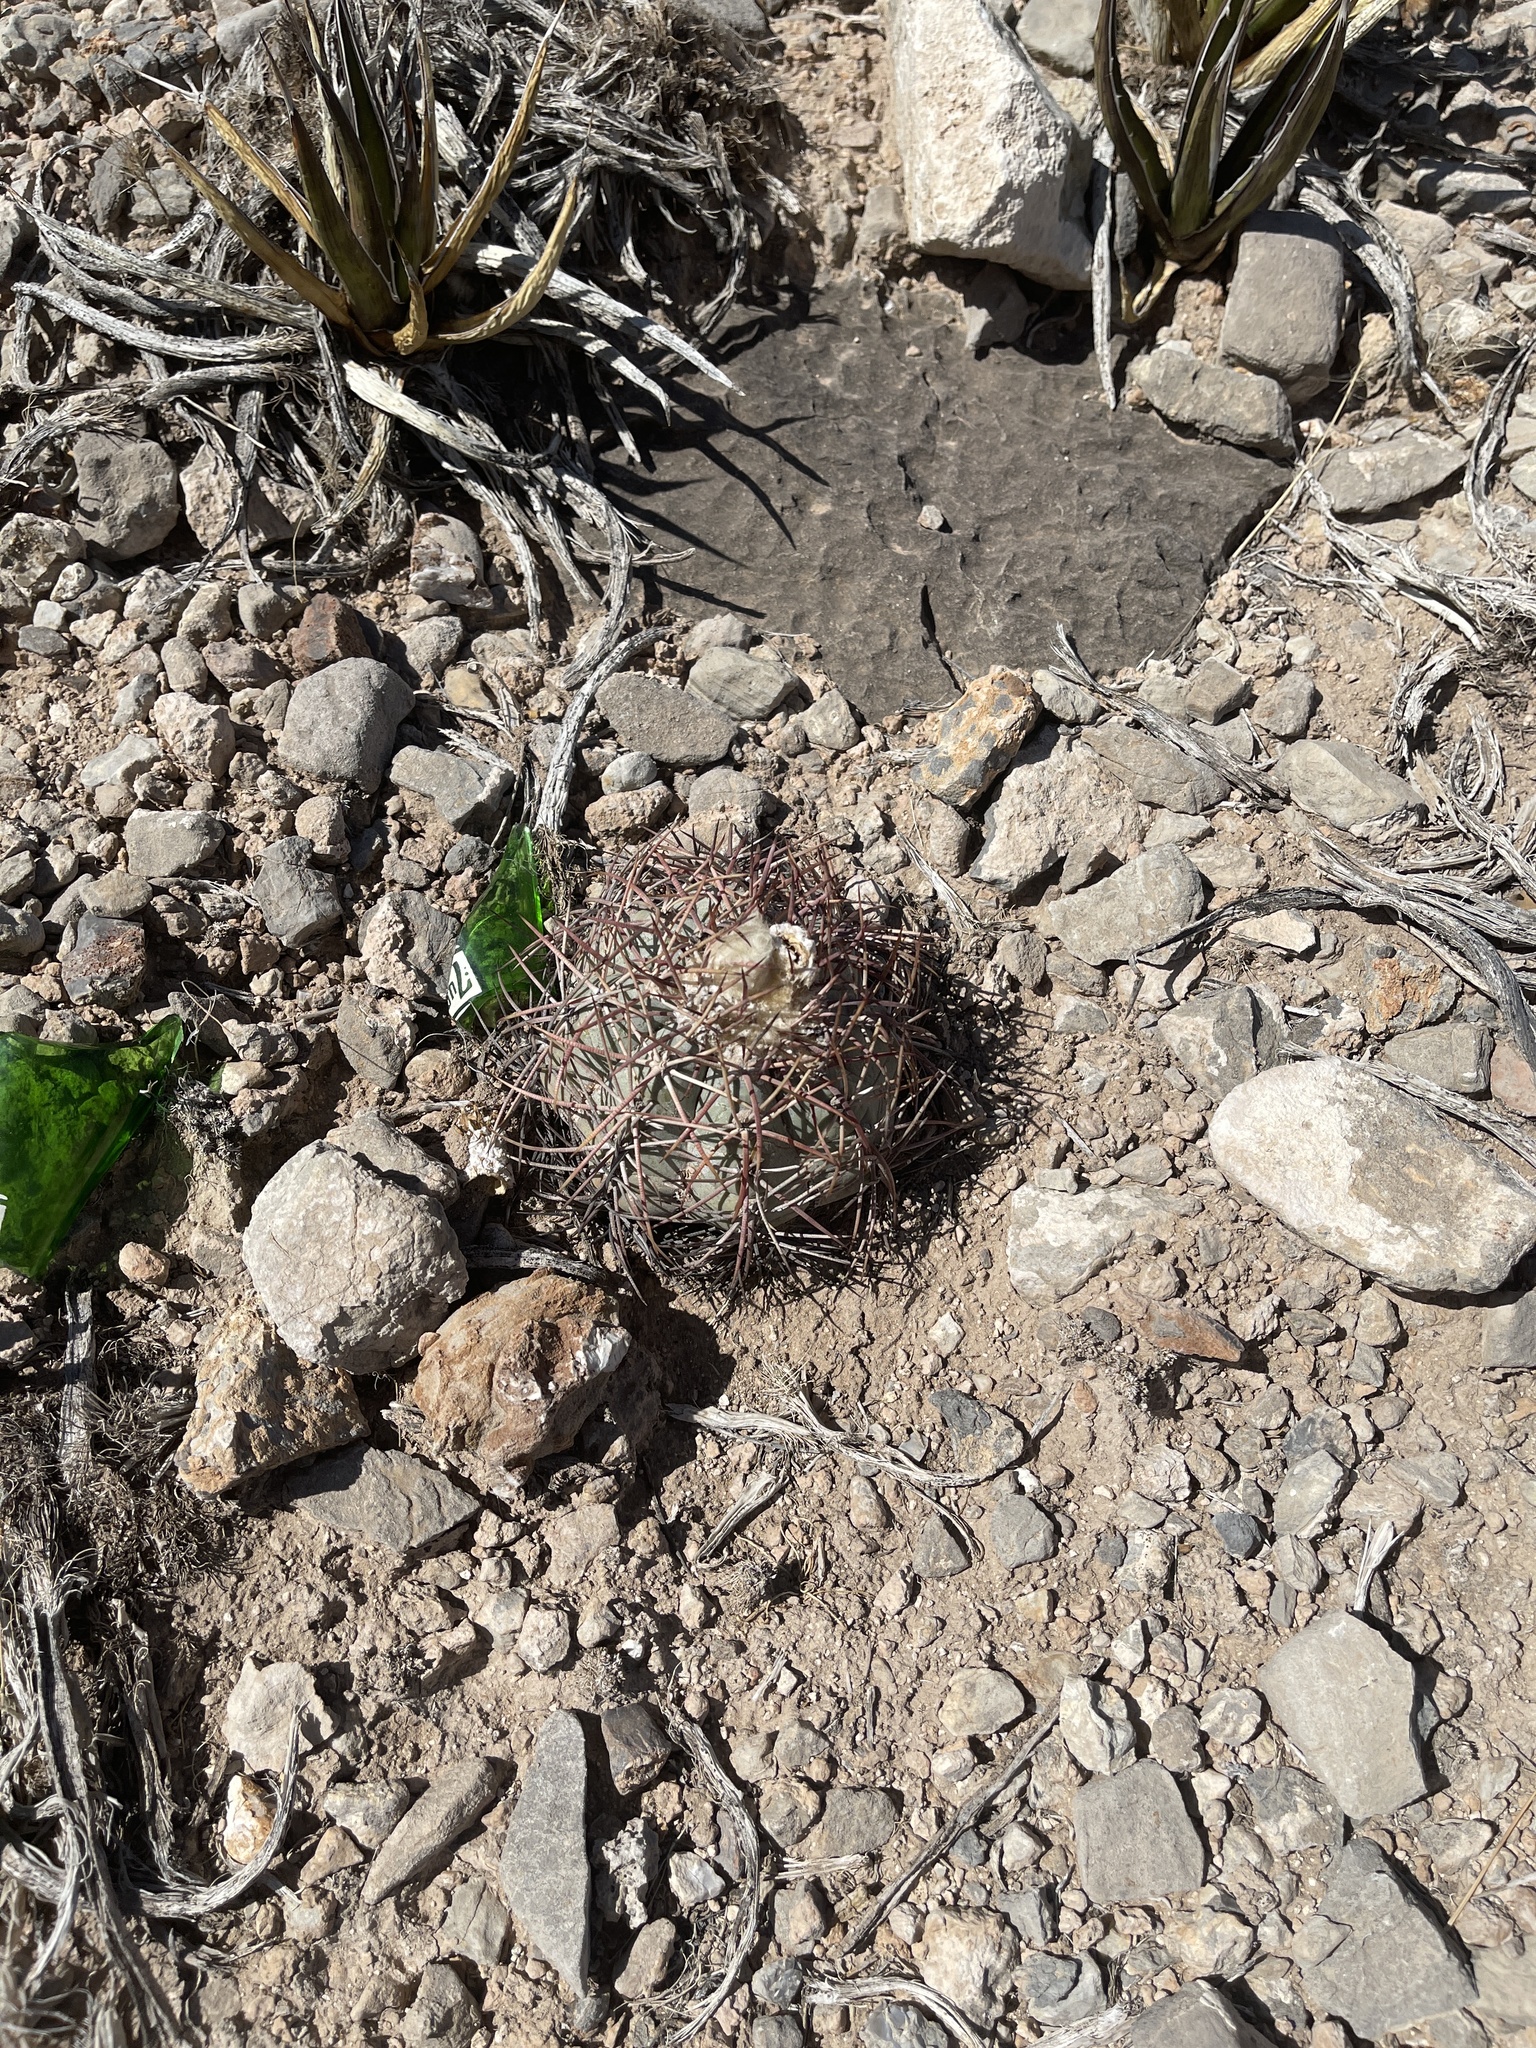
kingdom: Plantae
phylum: Tracheophyta
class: Magnoliopsida
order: Caryophyllales
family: Cactaceae
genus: Echinocactus
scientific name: Echinocactus horizonthalonius
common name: Devilshead
